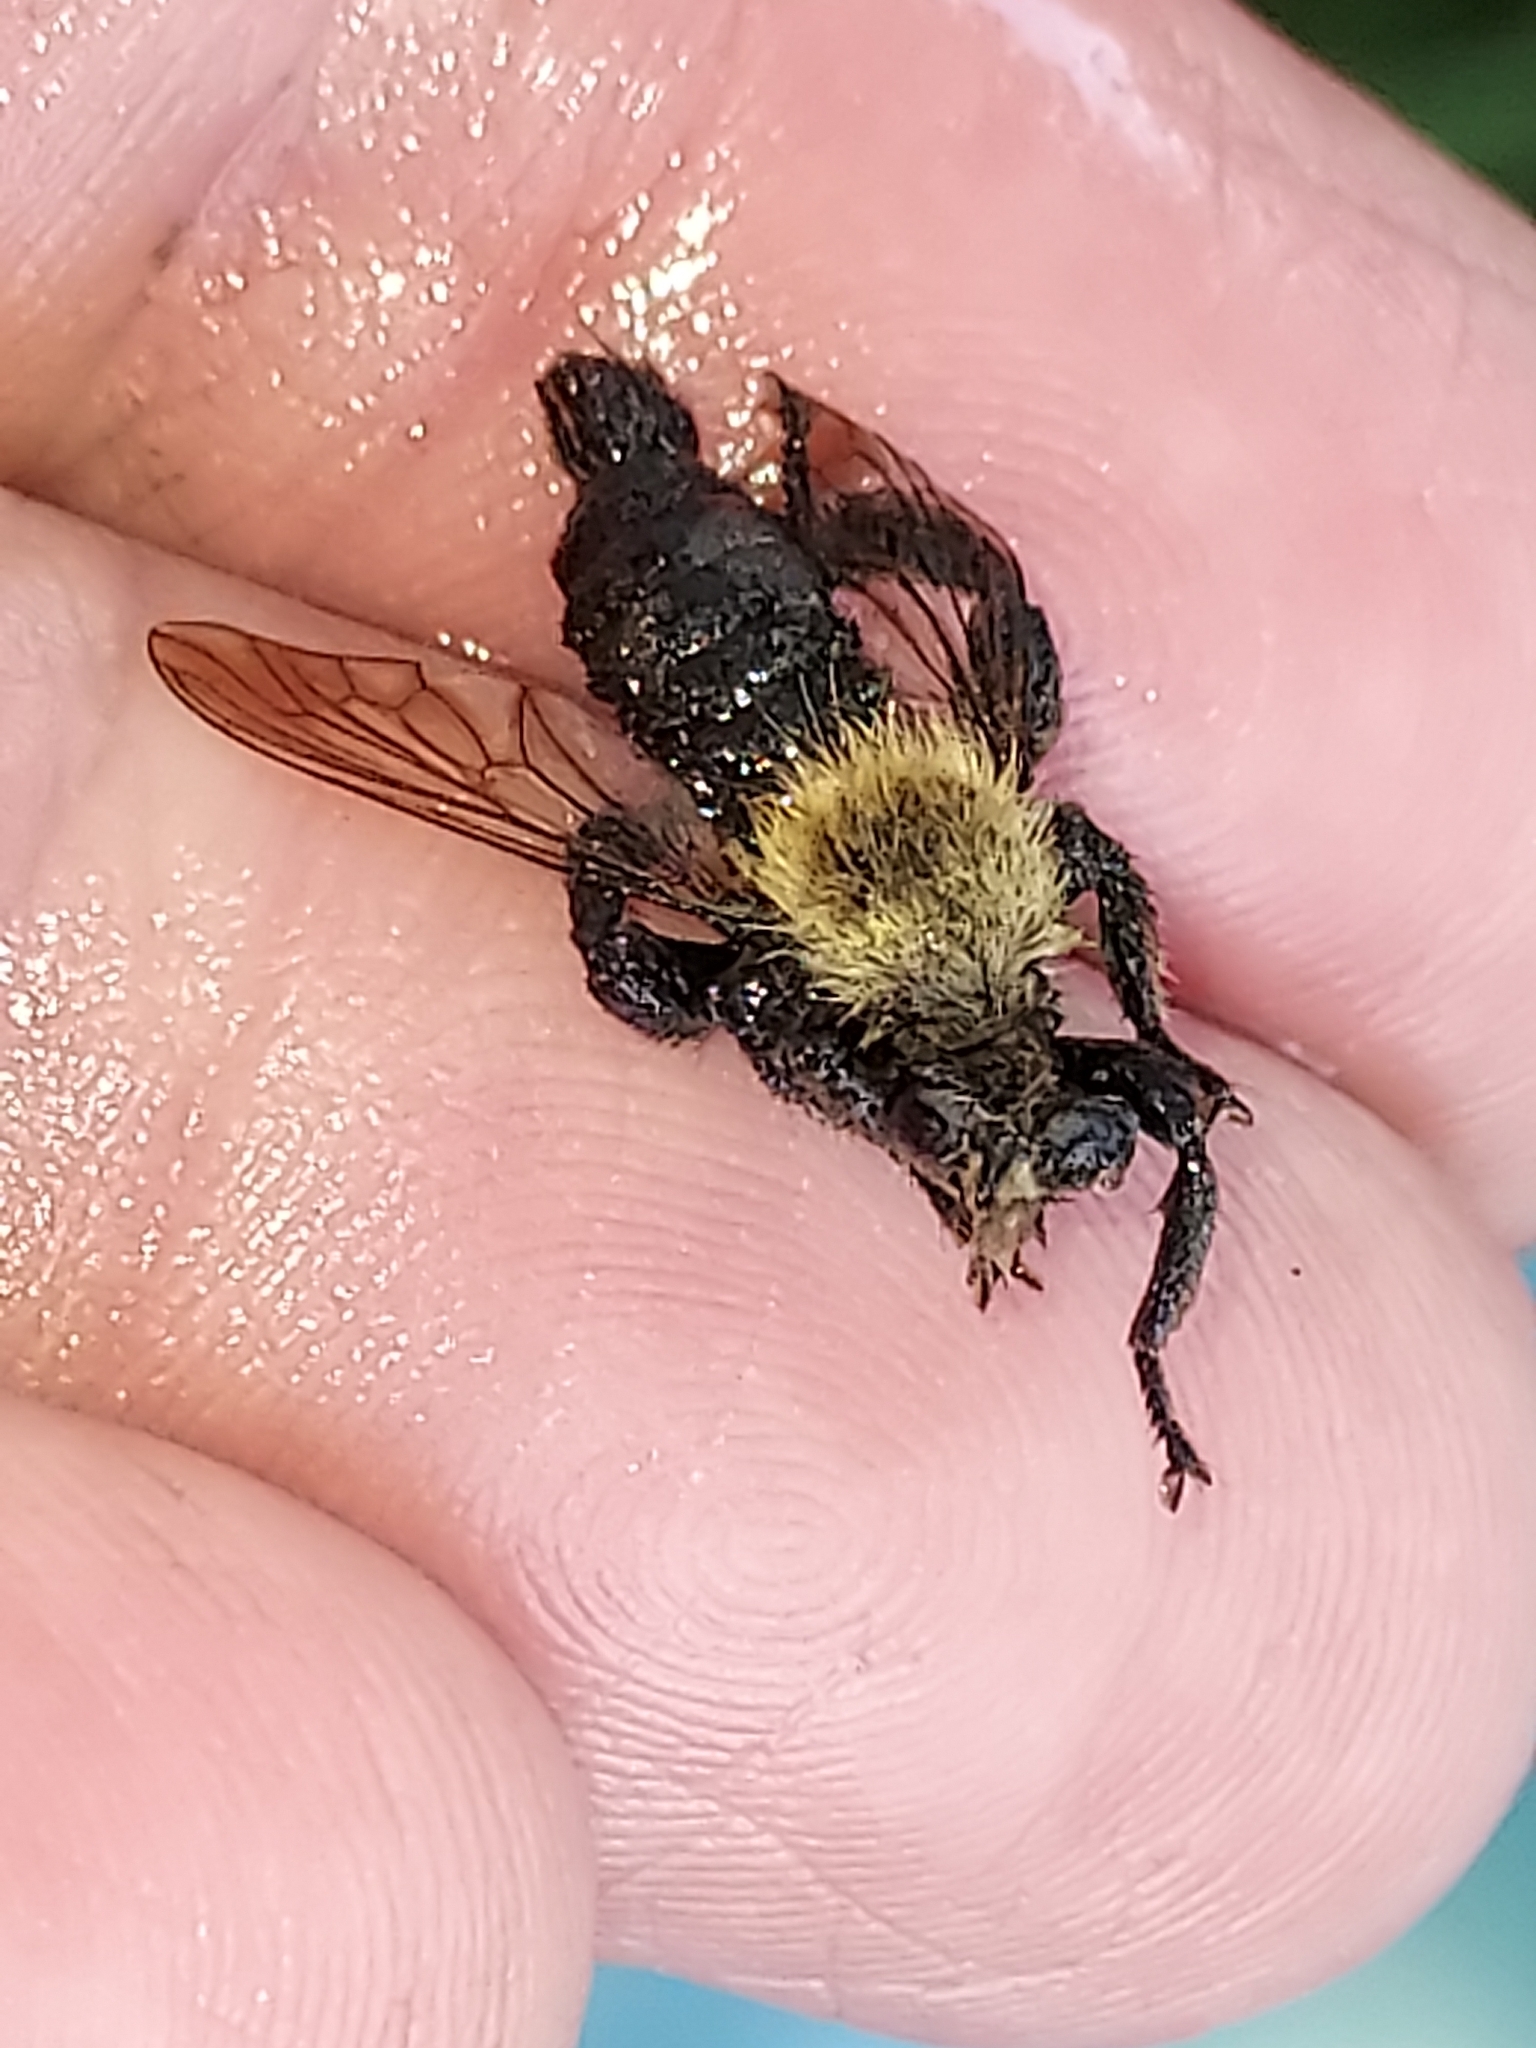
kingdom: Animalia
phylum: Arthropoda
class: Insecta
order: Diptera
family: Asilidae
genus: Laphria
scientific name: Laphria flavicollis
